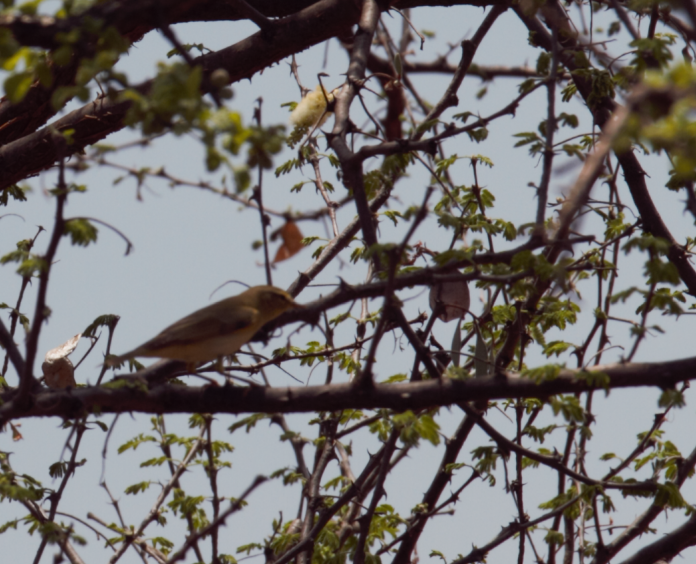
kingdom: Animalia
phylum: Chordata
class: Aves
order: Passeriformes
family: Phylloscopidae
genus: Phylloscopus
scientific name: Phylloscopus trochilus
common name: Willow warbler
